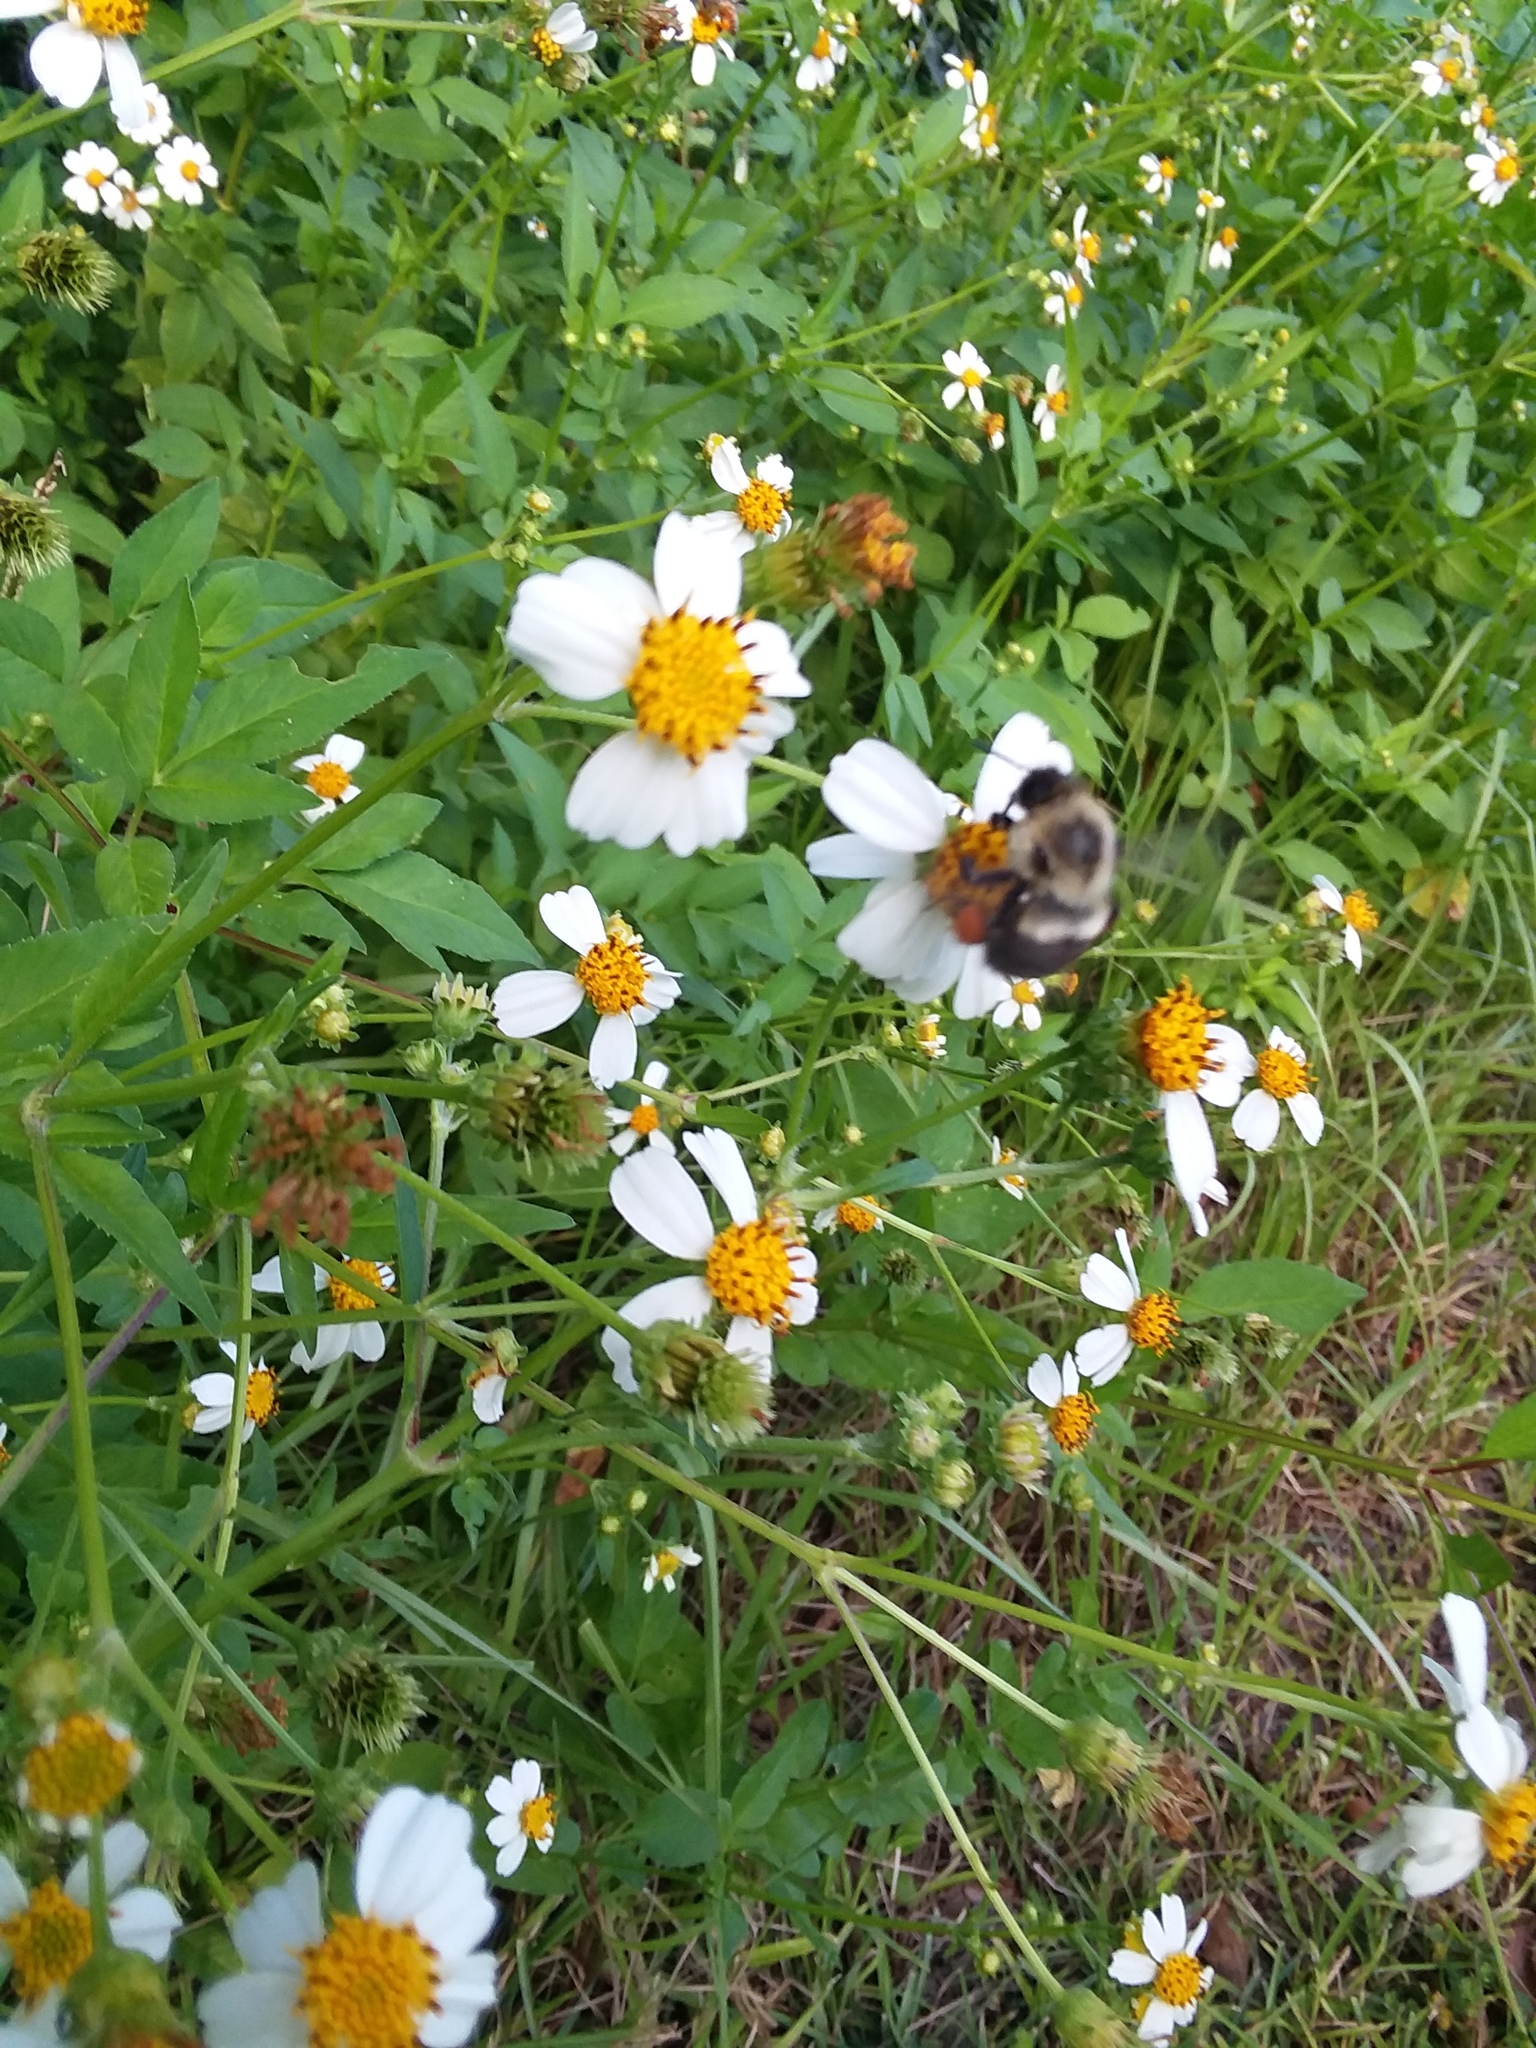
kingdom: Animalia
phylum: Arthropoda
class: Insecta
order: Hymenoptera
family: Apidae
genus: Bombus
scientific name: Bombus impatiens
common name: Common eastern bumble bee
